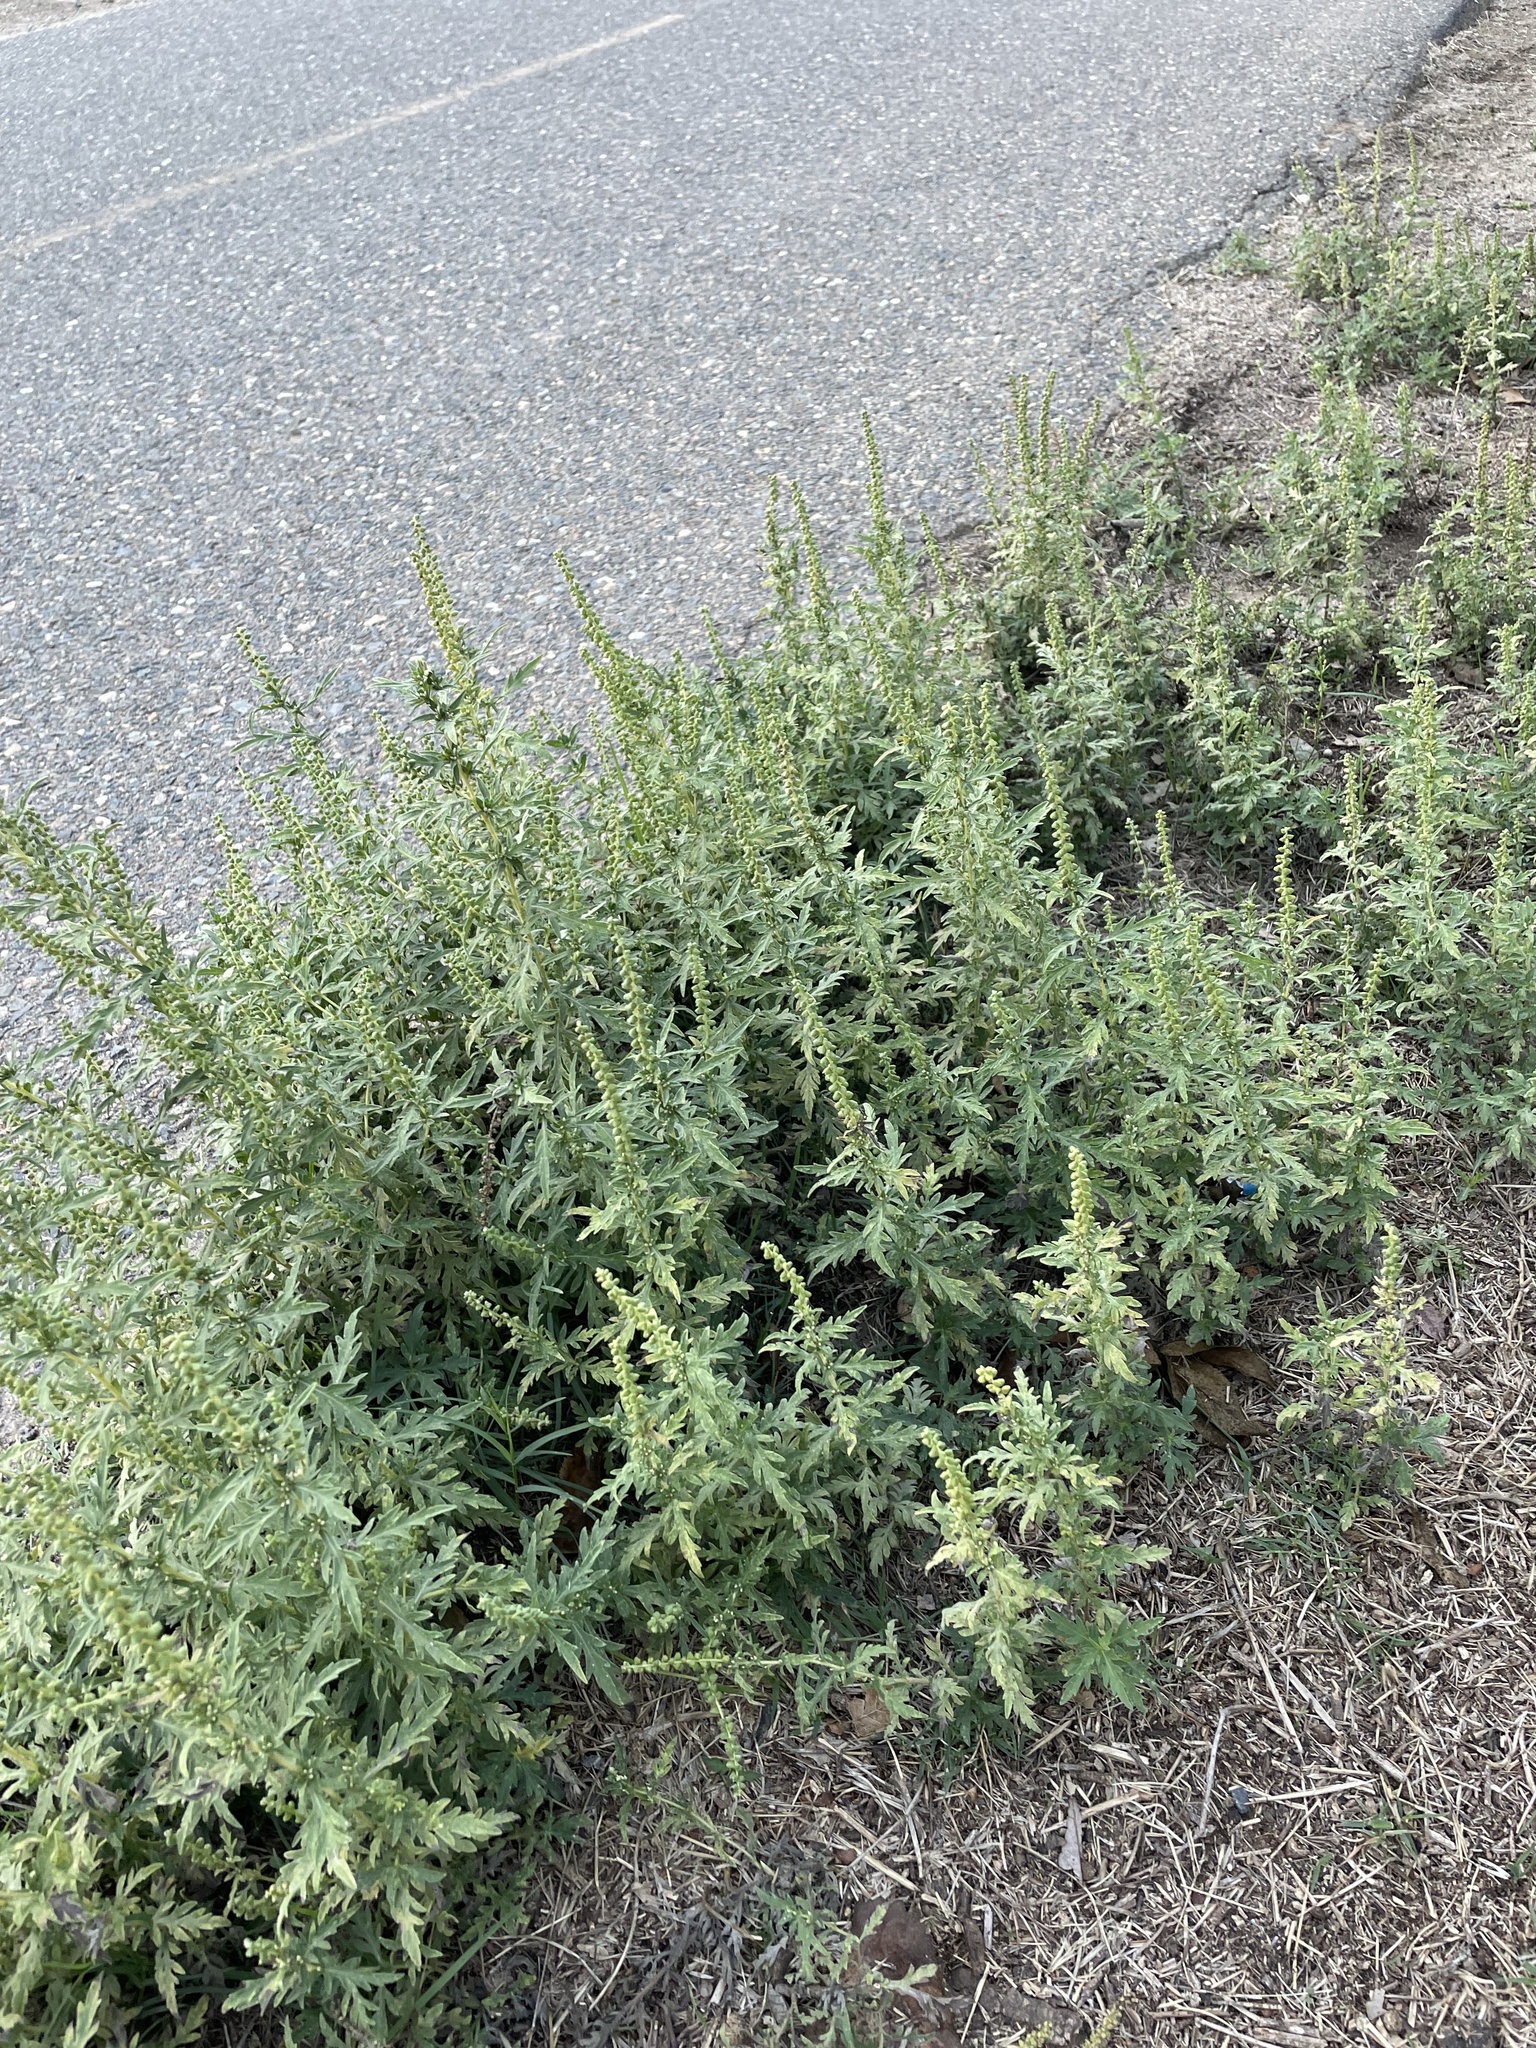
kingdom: Plantae
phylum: Tracheophyta
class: Magnoliopsida
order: Asterales
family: Asteraceae
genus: Ambrosia
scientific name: Ambrosia psilostachya
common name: Perennial ragweed
